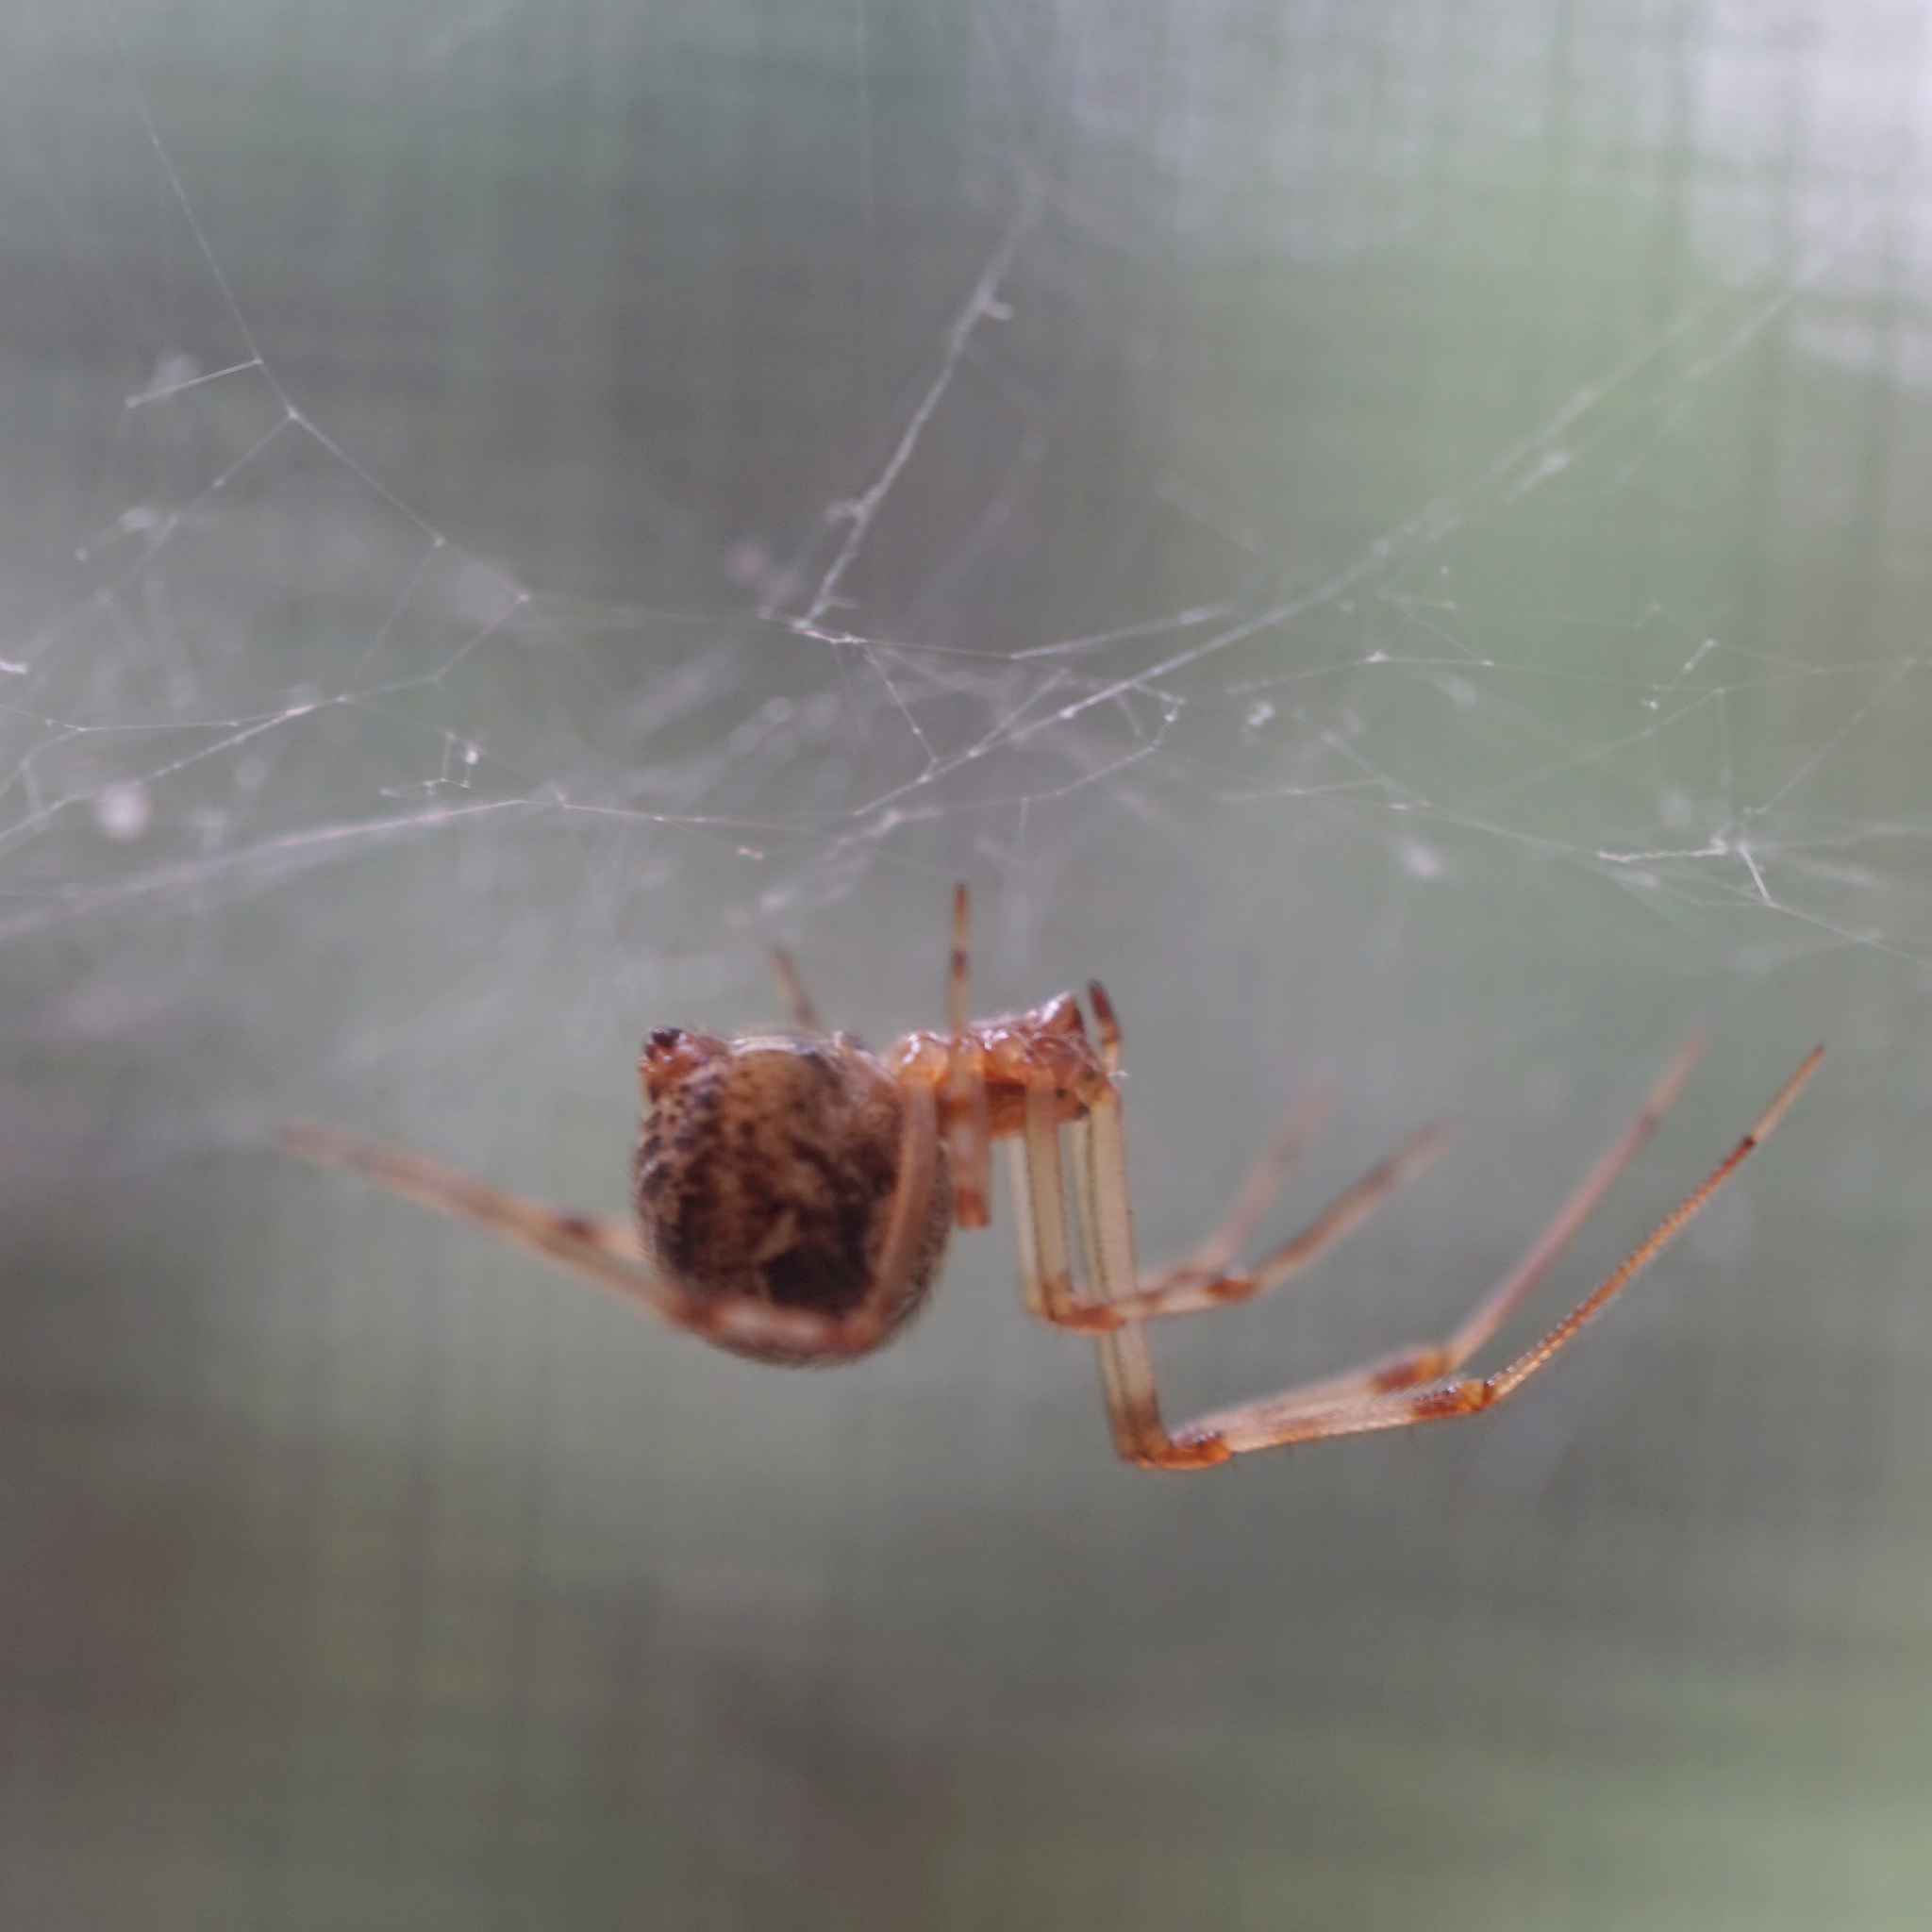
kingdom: Animalia
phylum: Arthropoda
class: Arachnida
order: Araneae
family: Theridiidae
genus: Parasteatoda
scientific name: Parasteatoda tepidariorum
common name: Common house spider
